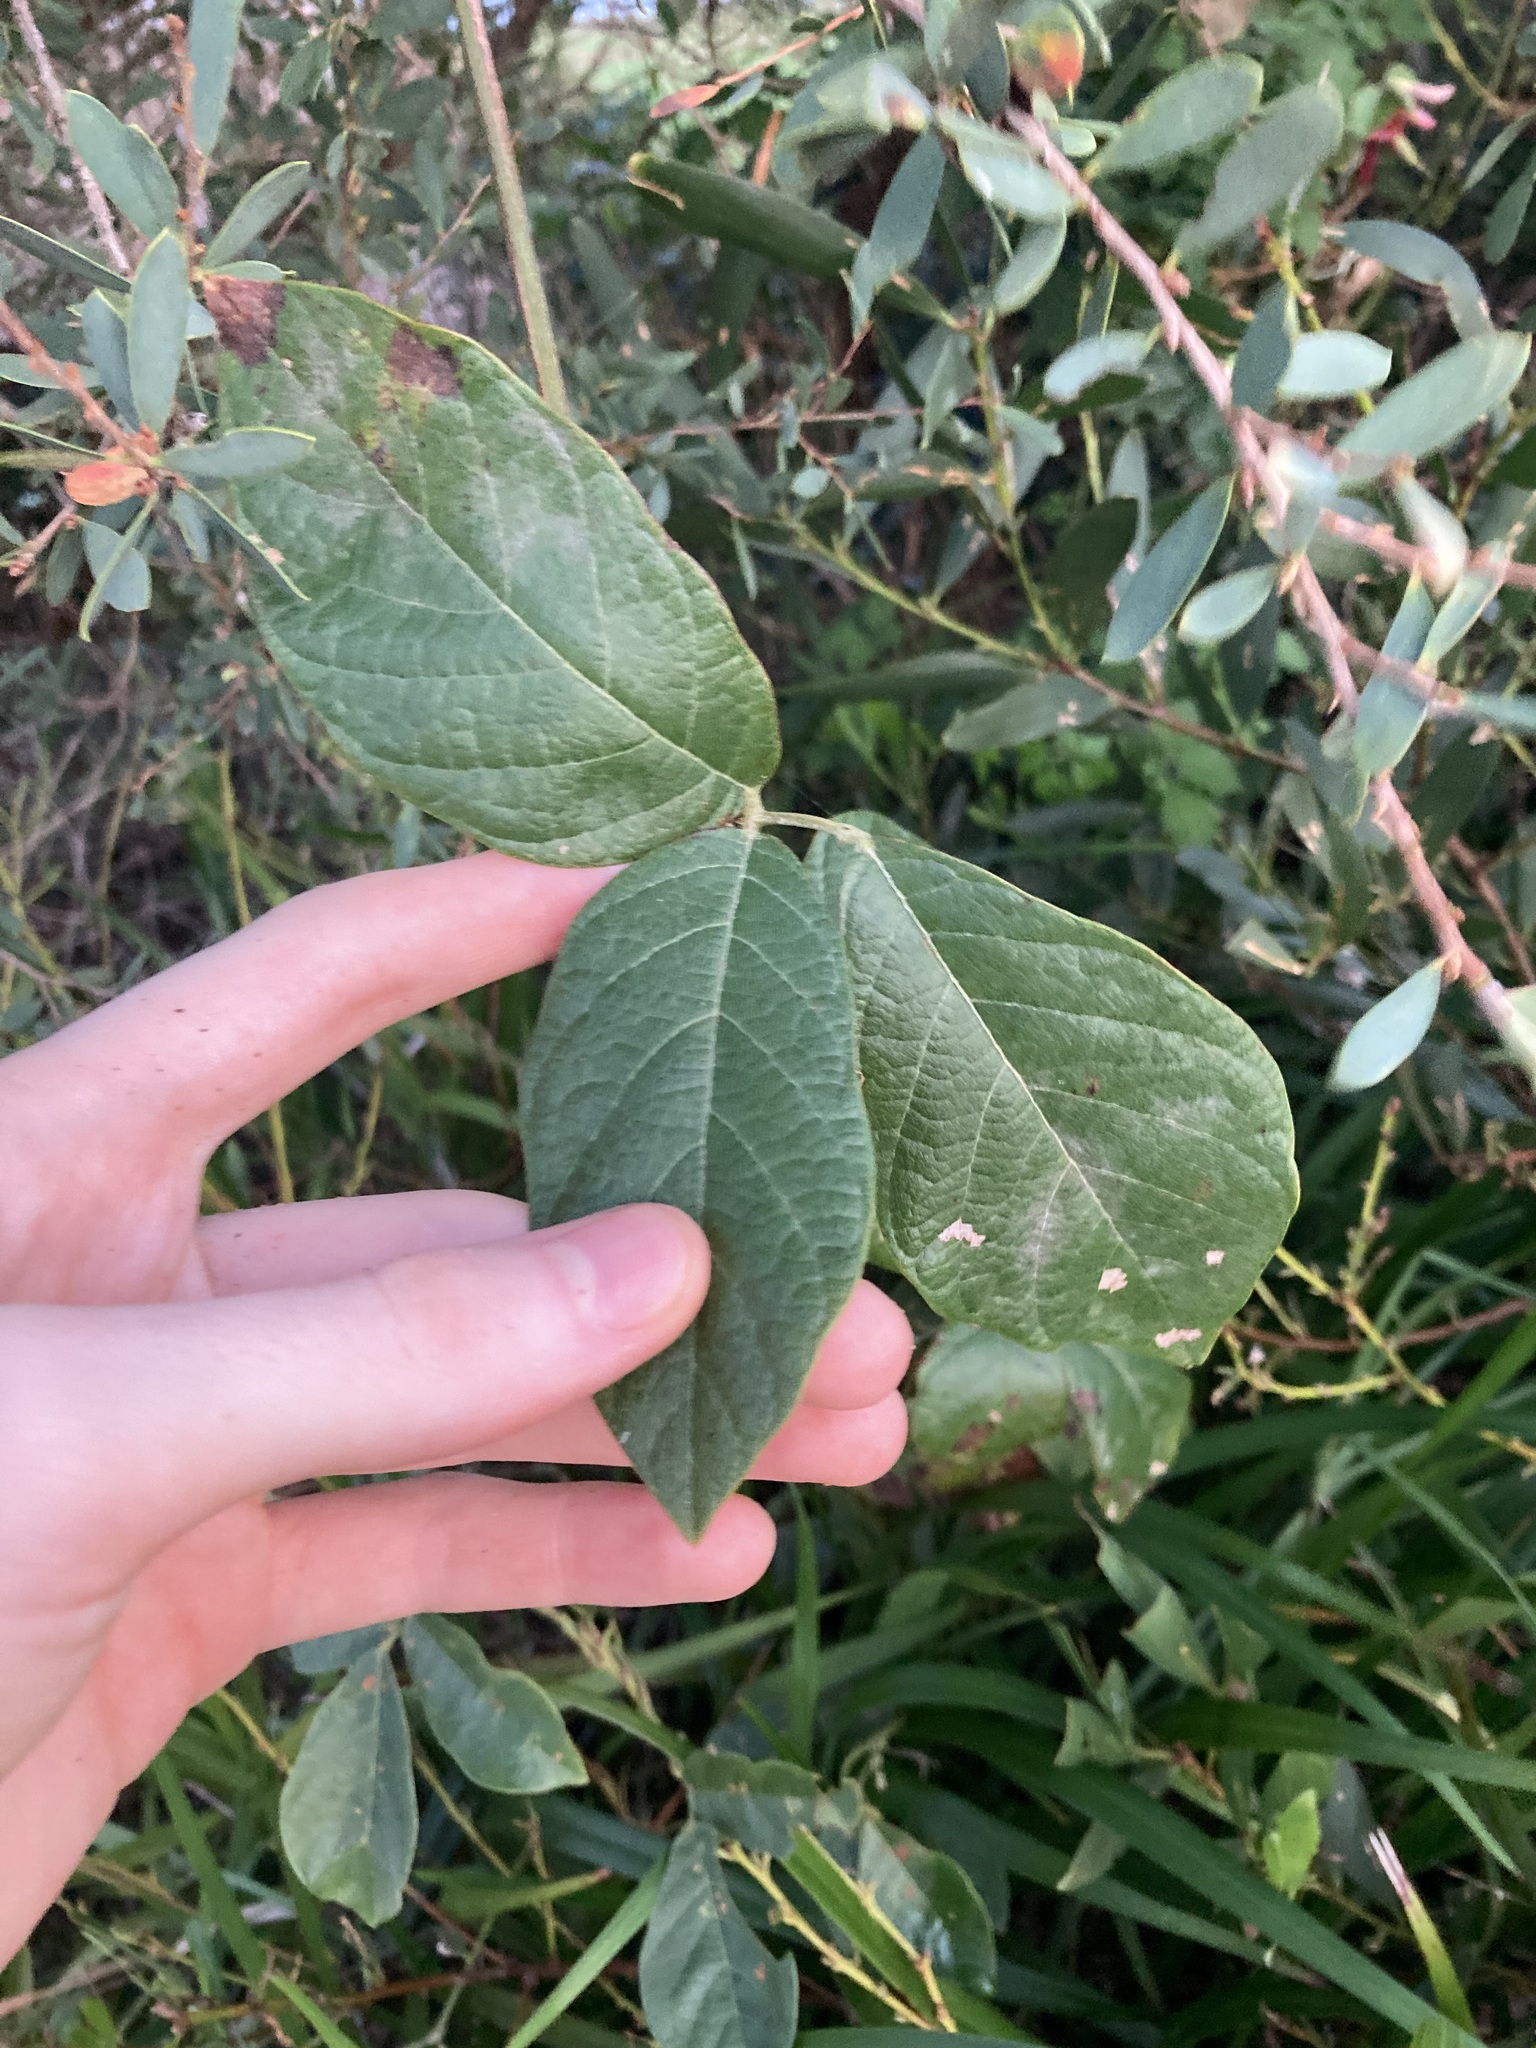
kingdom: Plantae
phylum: Tracheophyta
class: Magnoliopsida
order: Fabales
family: Fabaceae
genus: Kennedia
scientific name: Kennedia rubicunda
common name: Red kennedy-pea
